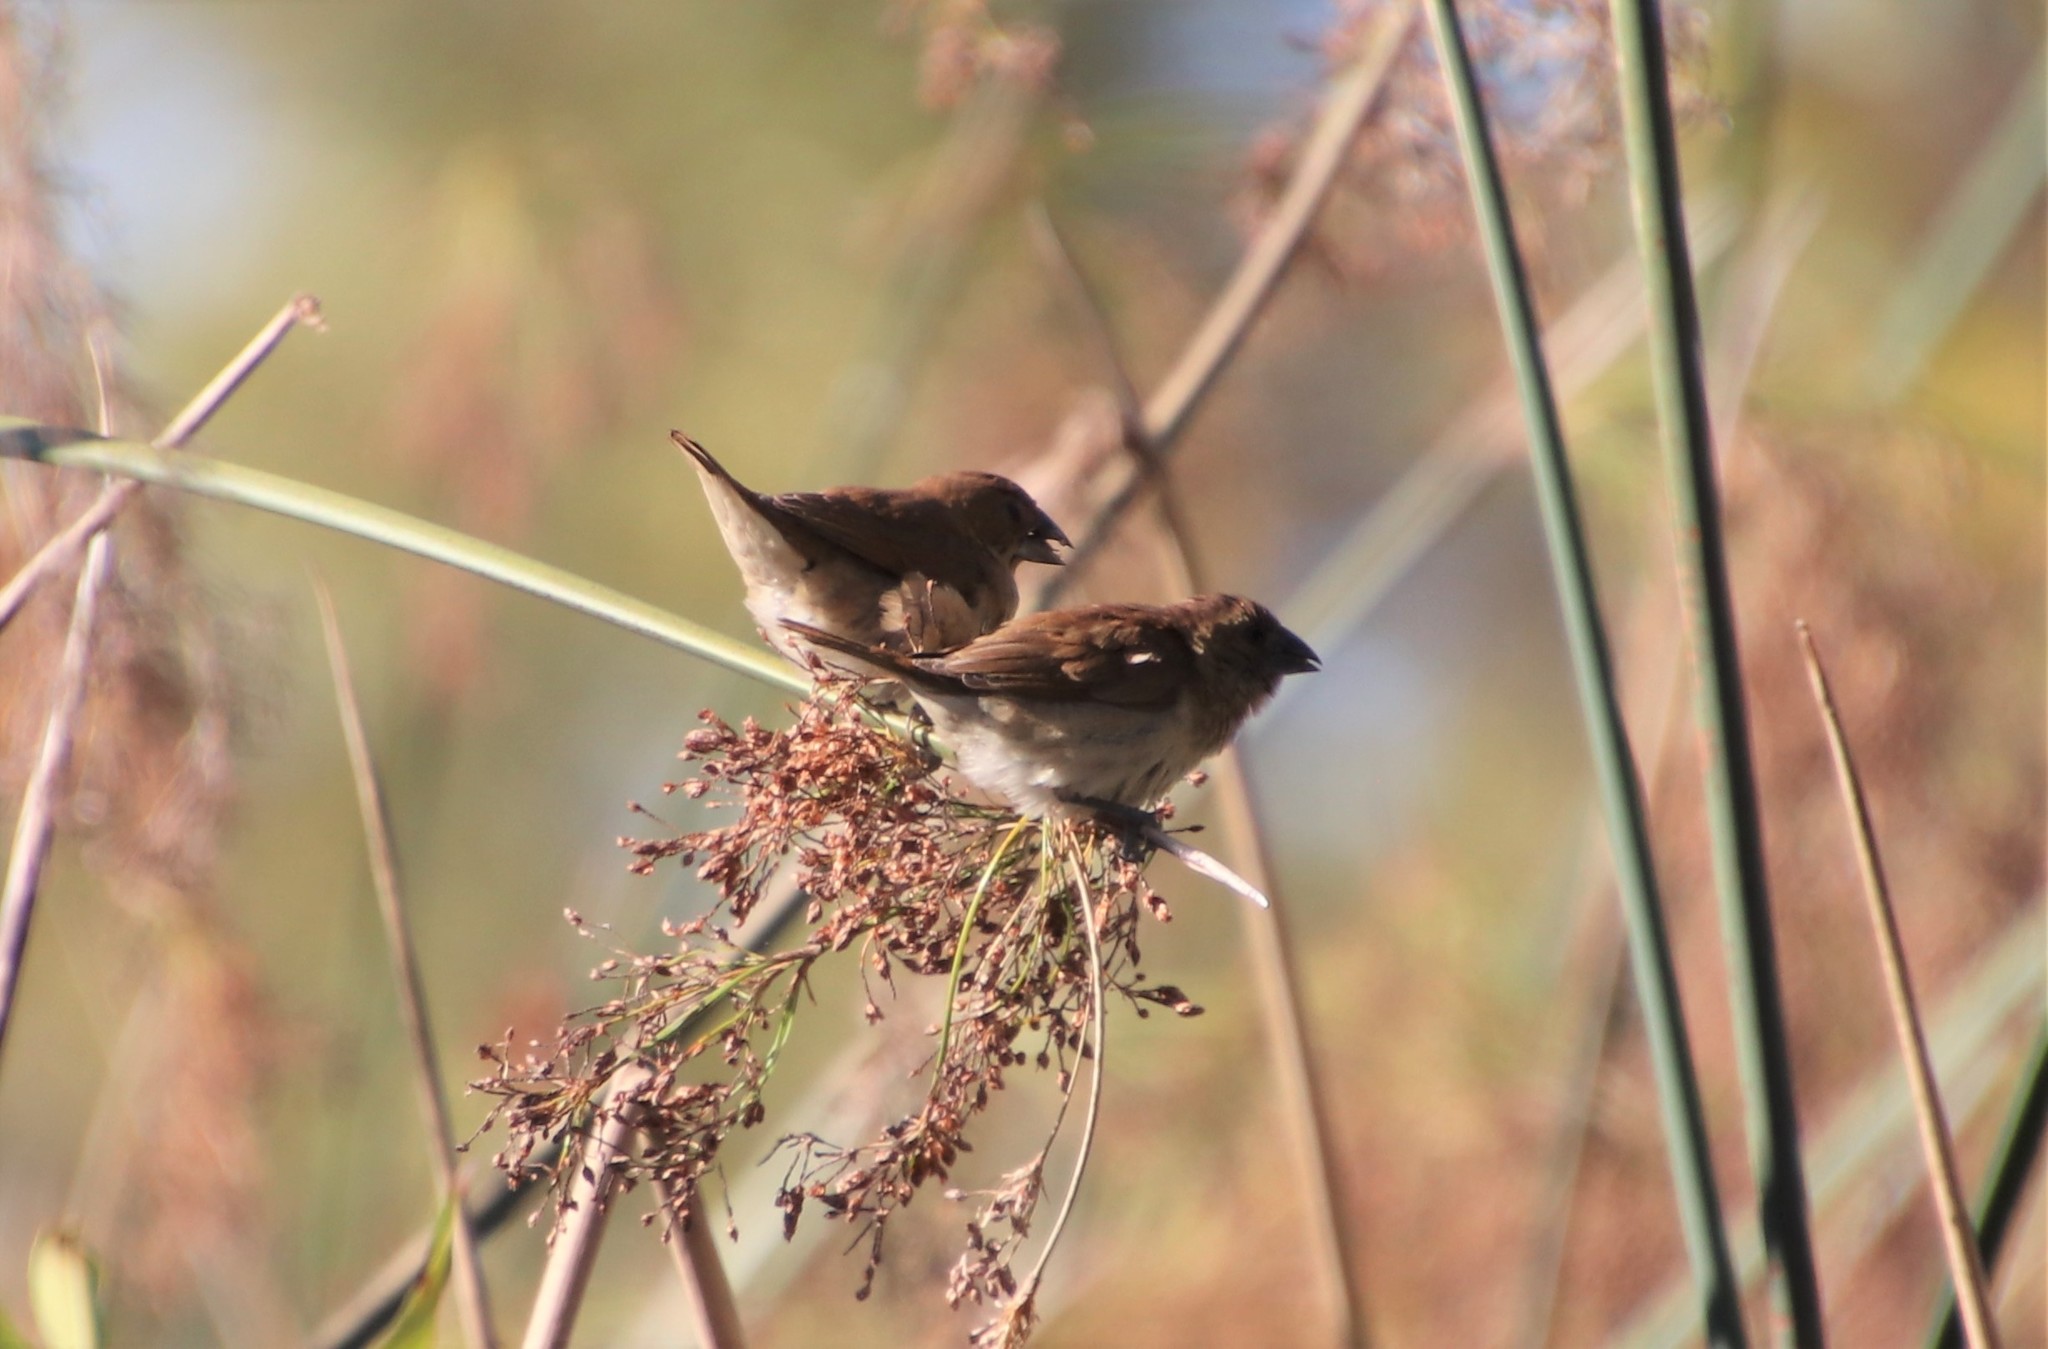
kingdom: Animalia
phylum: Chordata
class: Aves
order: Passeriformes
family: Estrildidae
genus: Lonchura
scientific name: Lonchura punctulata
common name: Scaly-breasted munia
